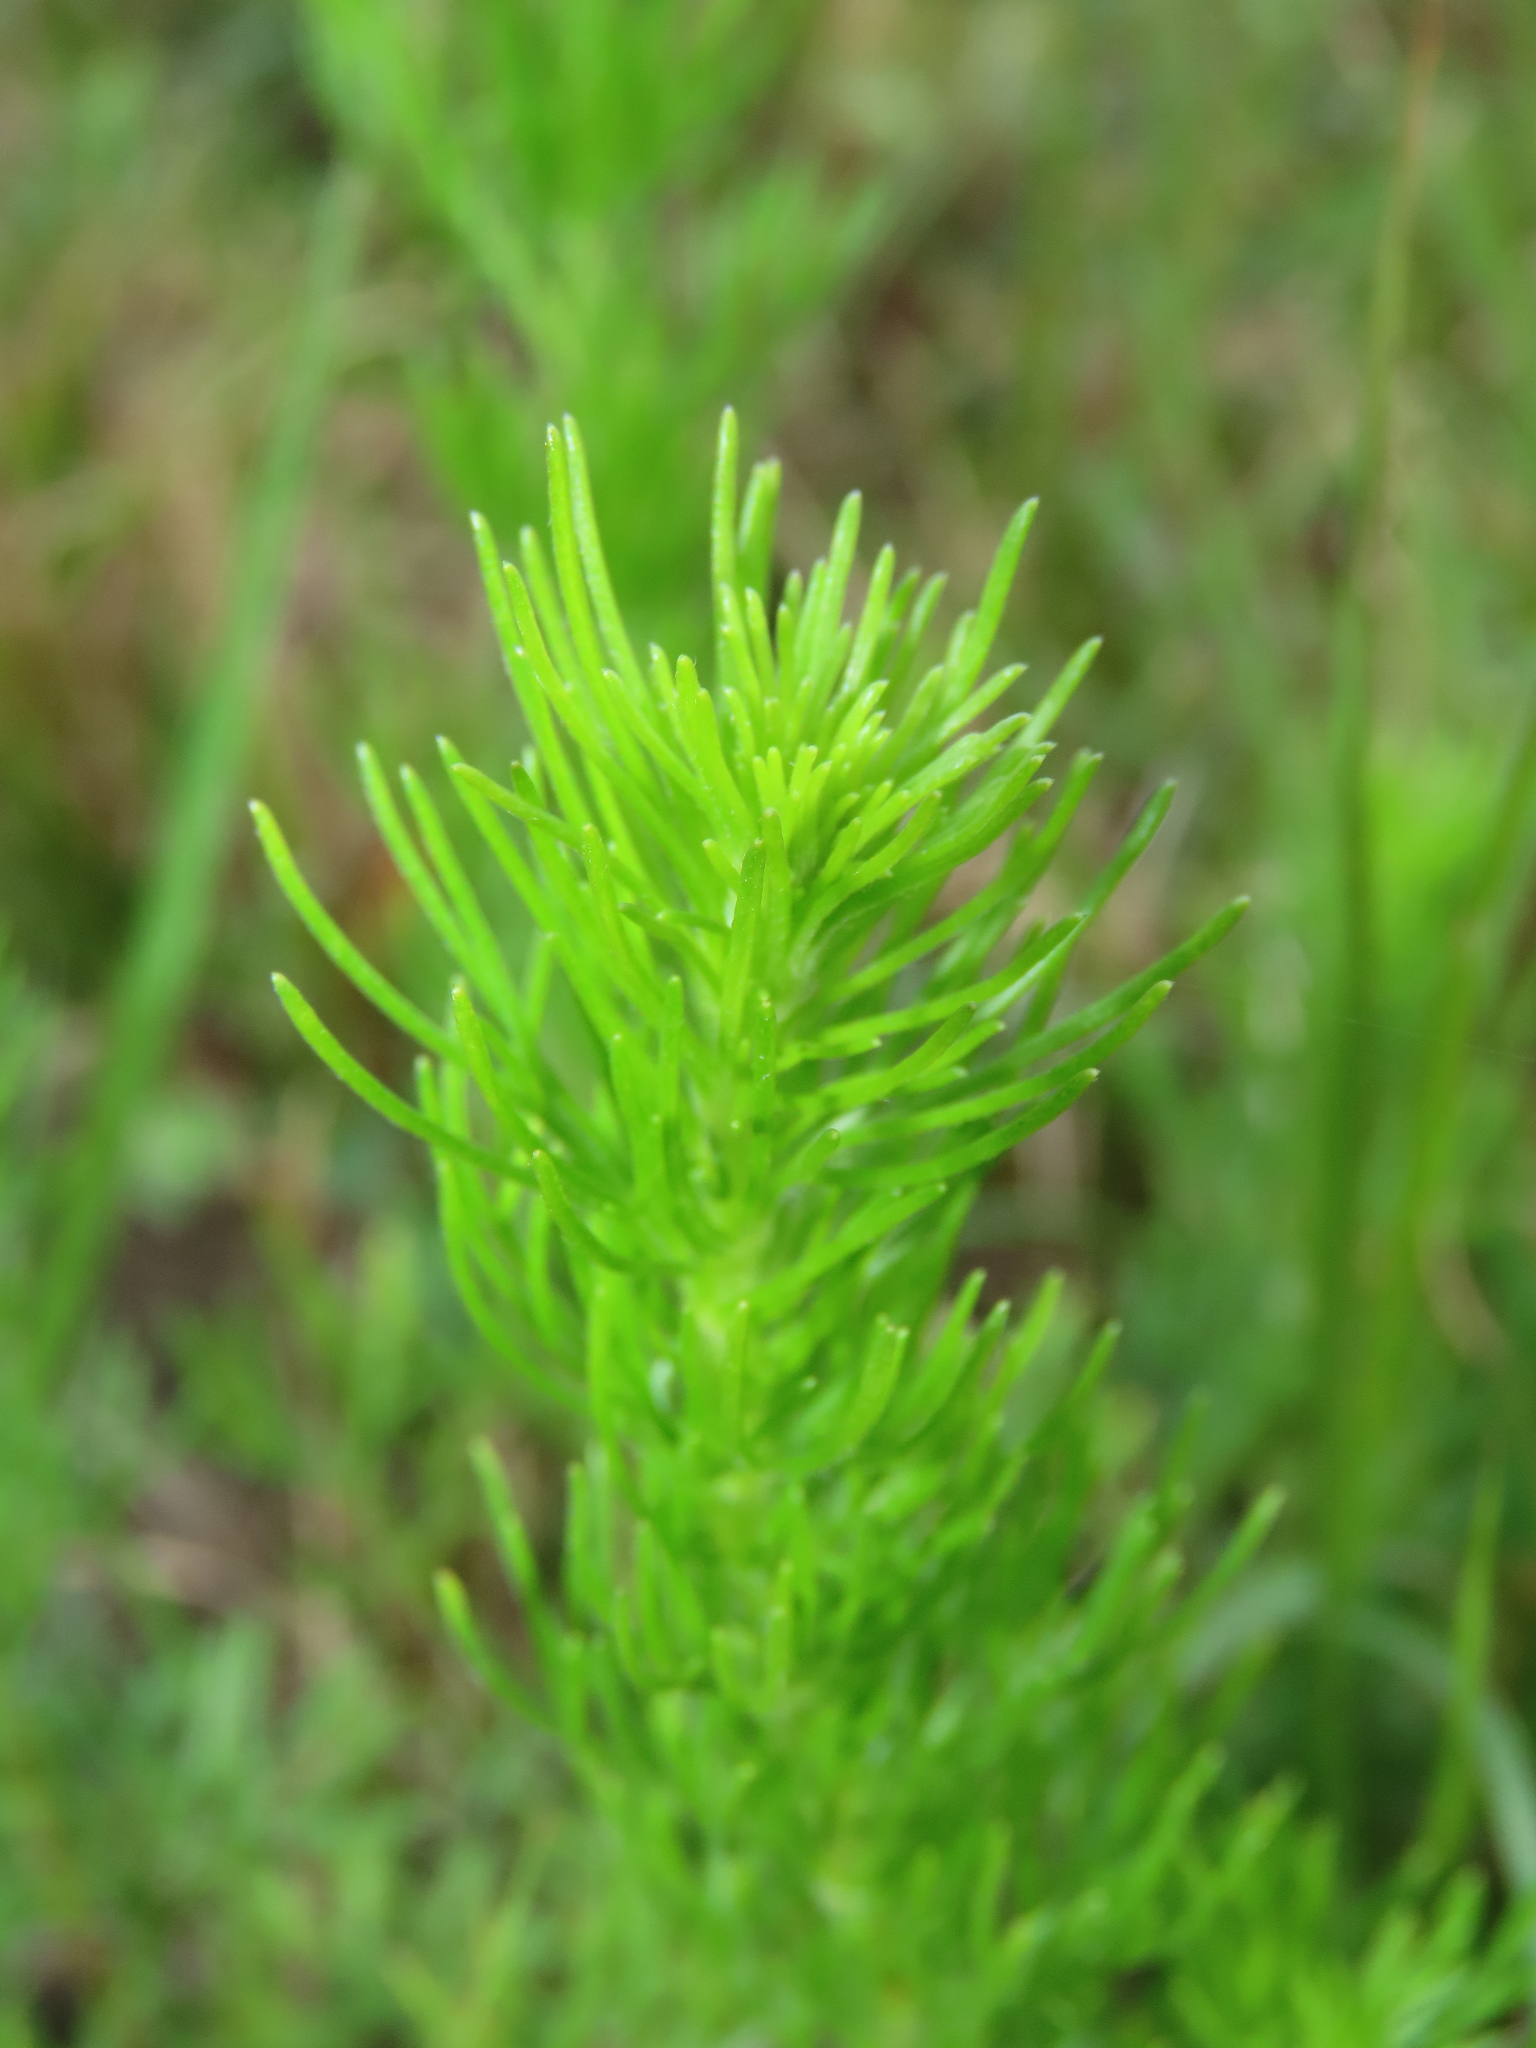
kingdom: Plantae
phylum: Tracheophyta
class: Magnoliopsida
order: Asterales
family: Asteraceae
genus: Artemisia
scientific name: Artemisia capillaris
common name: Yin-chen wormwood
